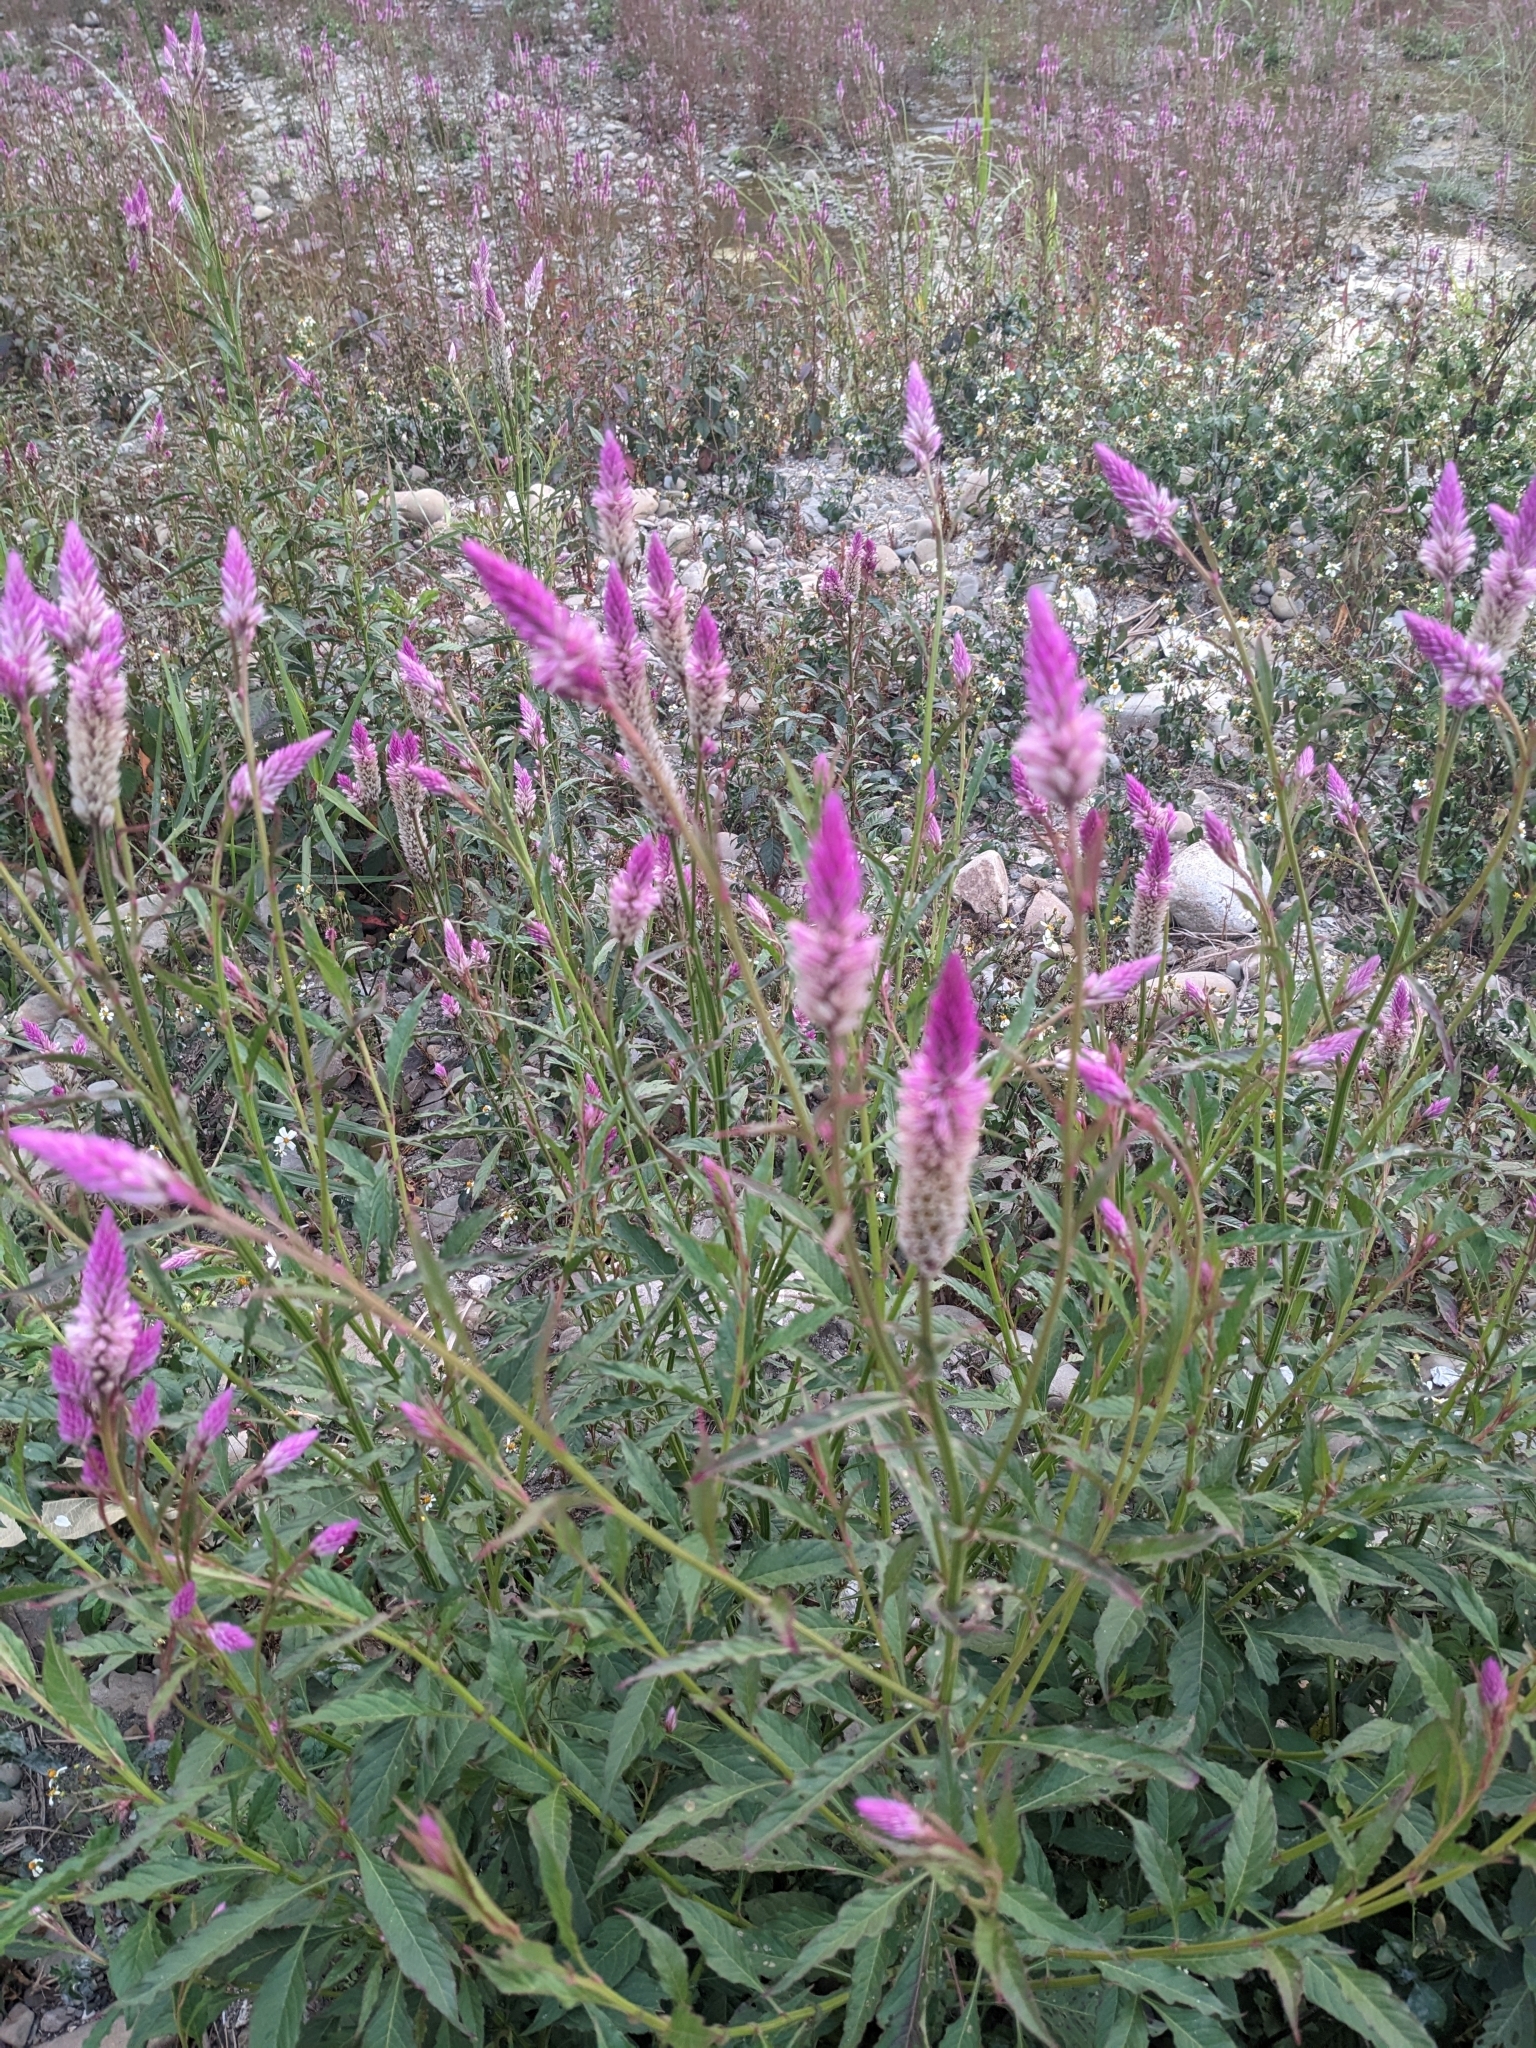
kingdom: Plantae
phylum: Tracheophyta
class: Magnoliopsida
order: Caryophyllales
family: Amaranthaceae
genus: Celosia
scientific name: Celosia argentea
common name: Feather cockscomb
